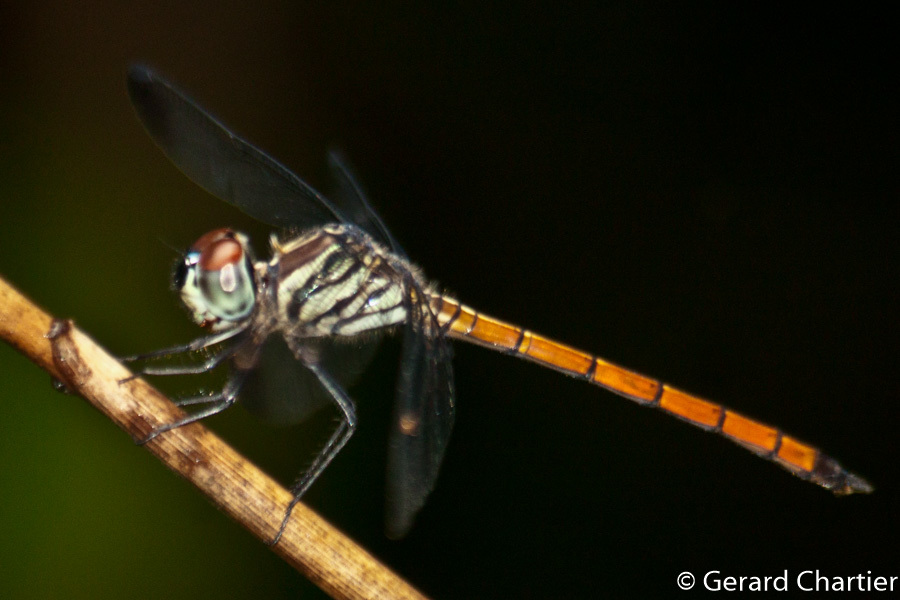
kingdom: Animalia
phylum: Arthropoda
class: Insecta
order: Odonata
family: Libellulidae
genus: Lathrecista
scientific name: Lathrecista asiatica
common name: Scarlet grenadier
